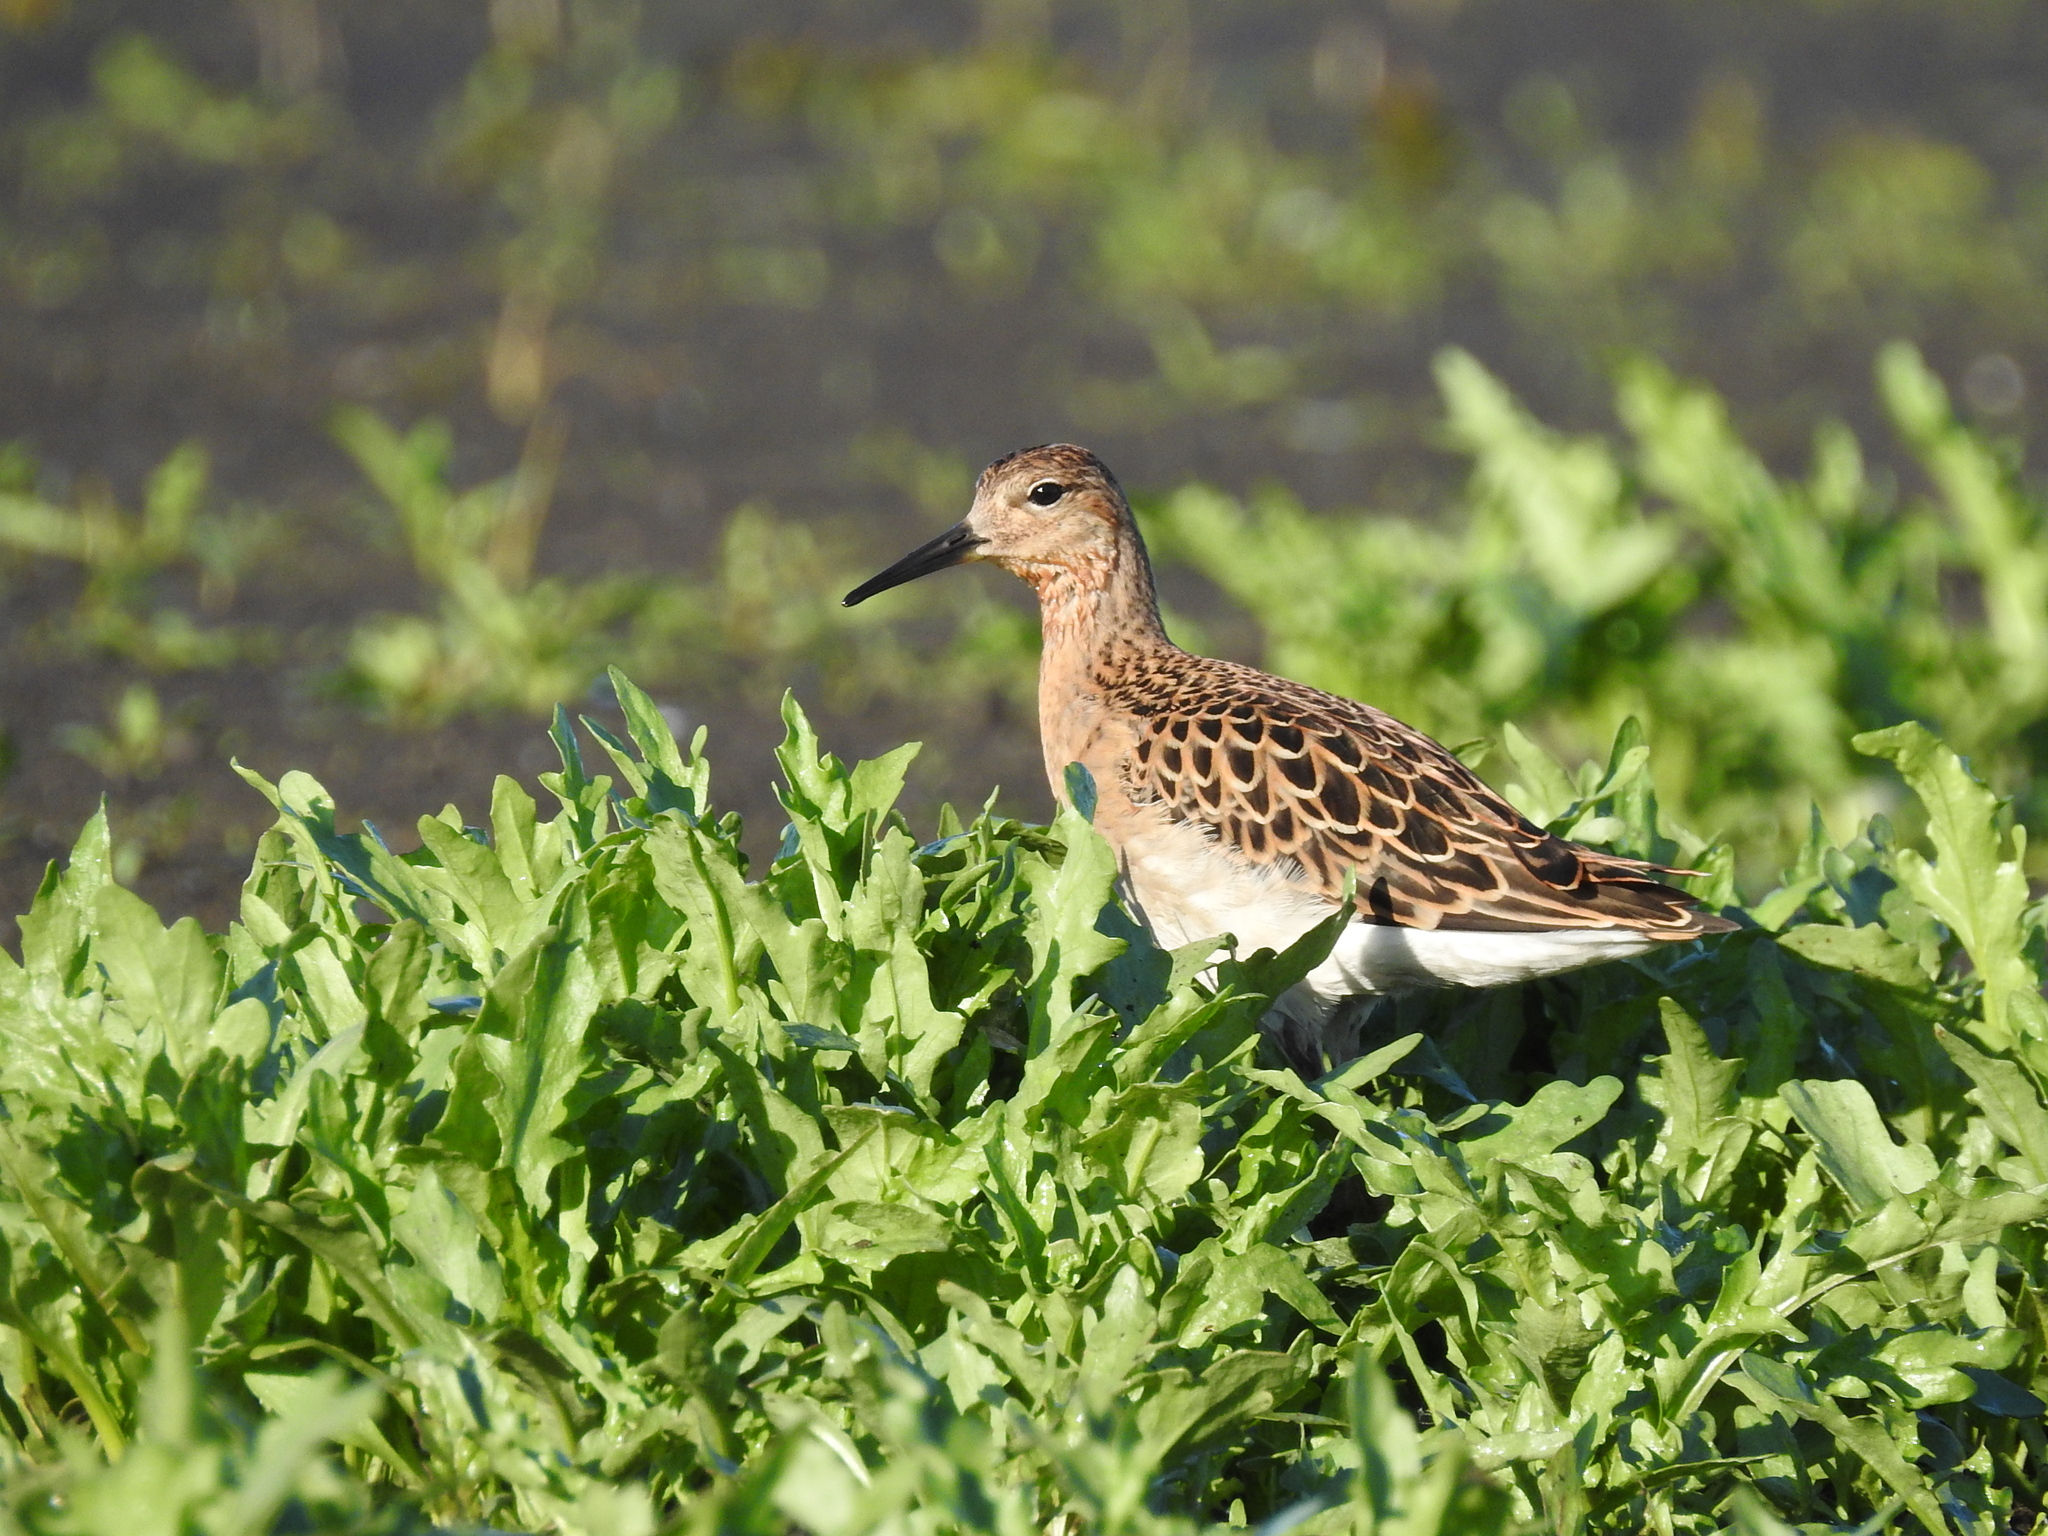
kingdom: Animalia
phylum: Chordata
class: Aves
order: Charadriiformes
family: Scolopacidae
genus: Calidris
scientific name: Calidris pugnax
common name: Ruff
